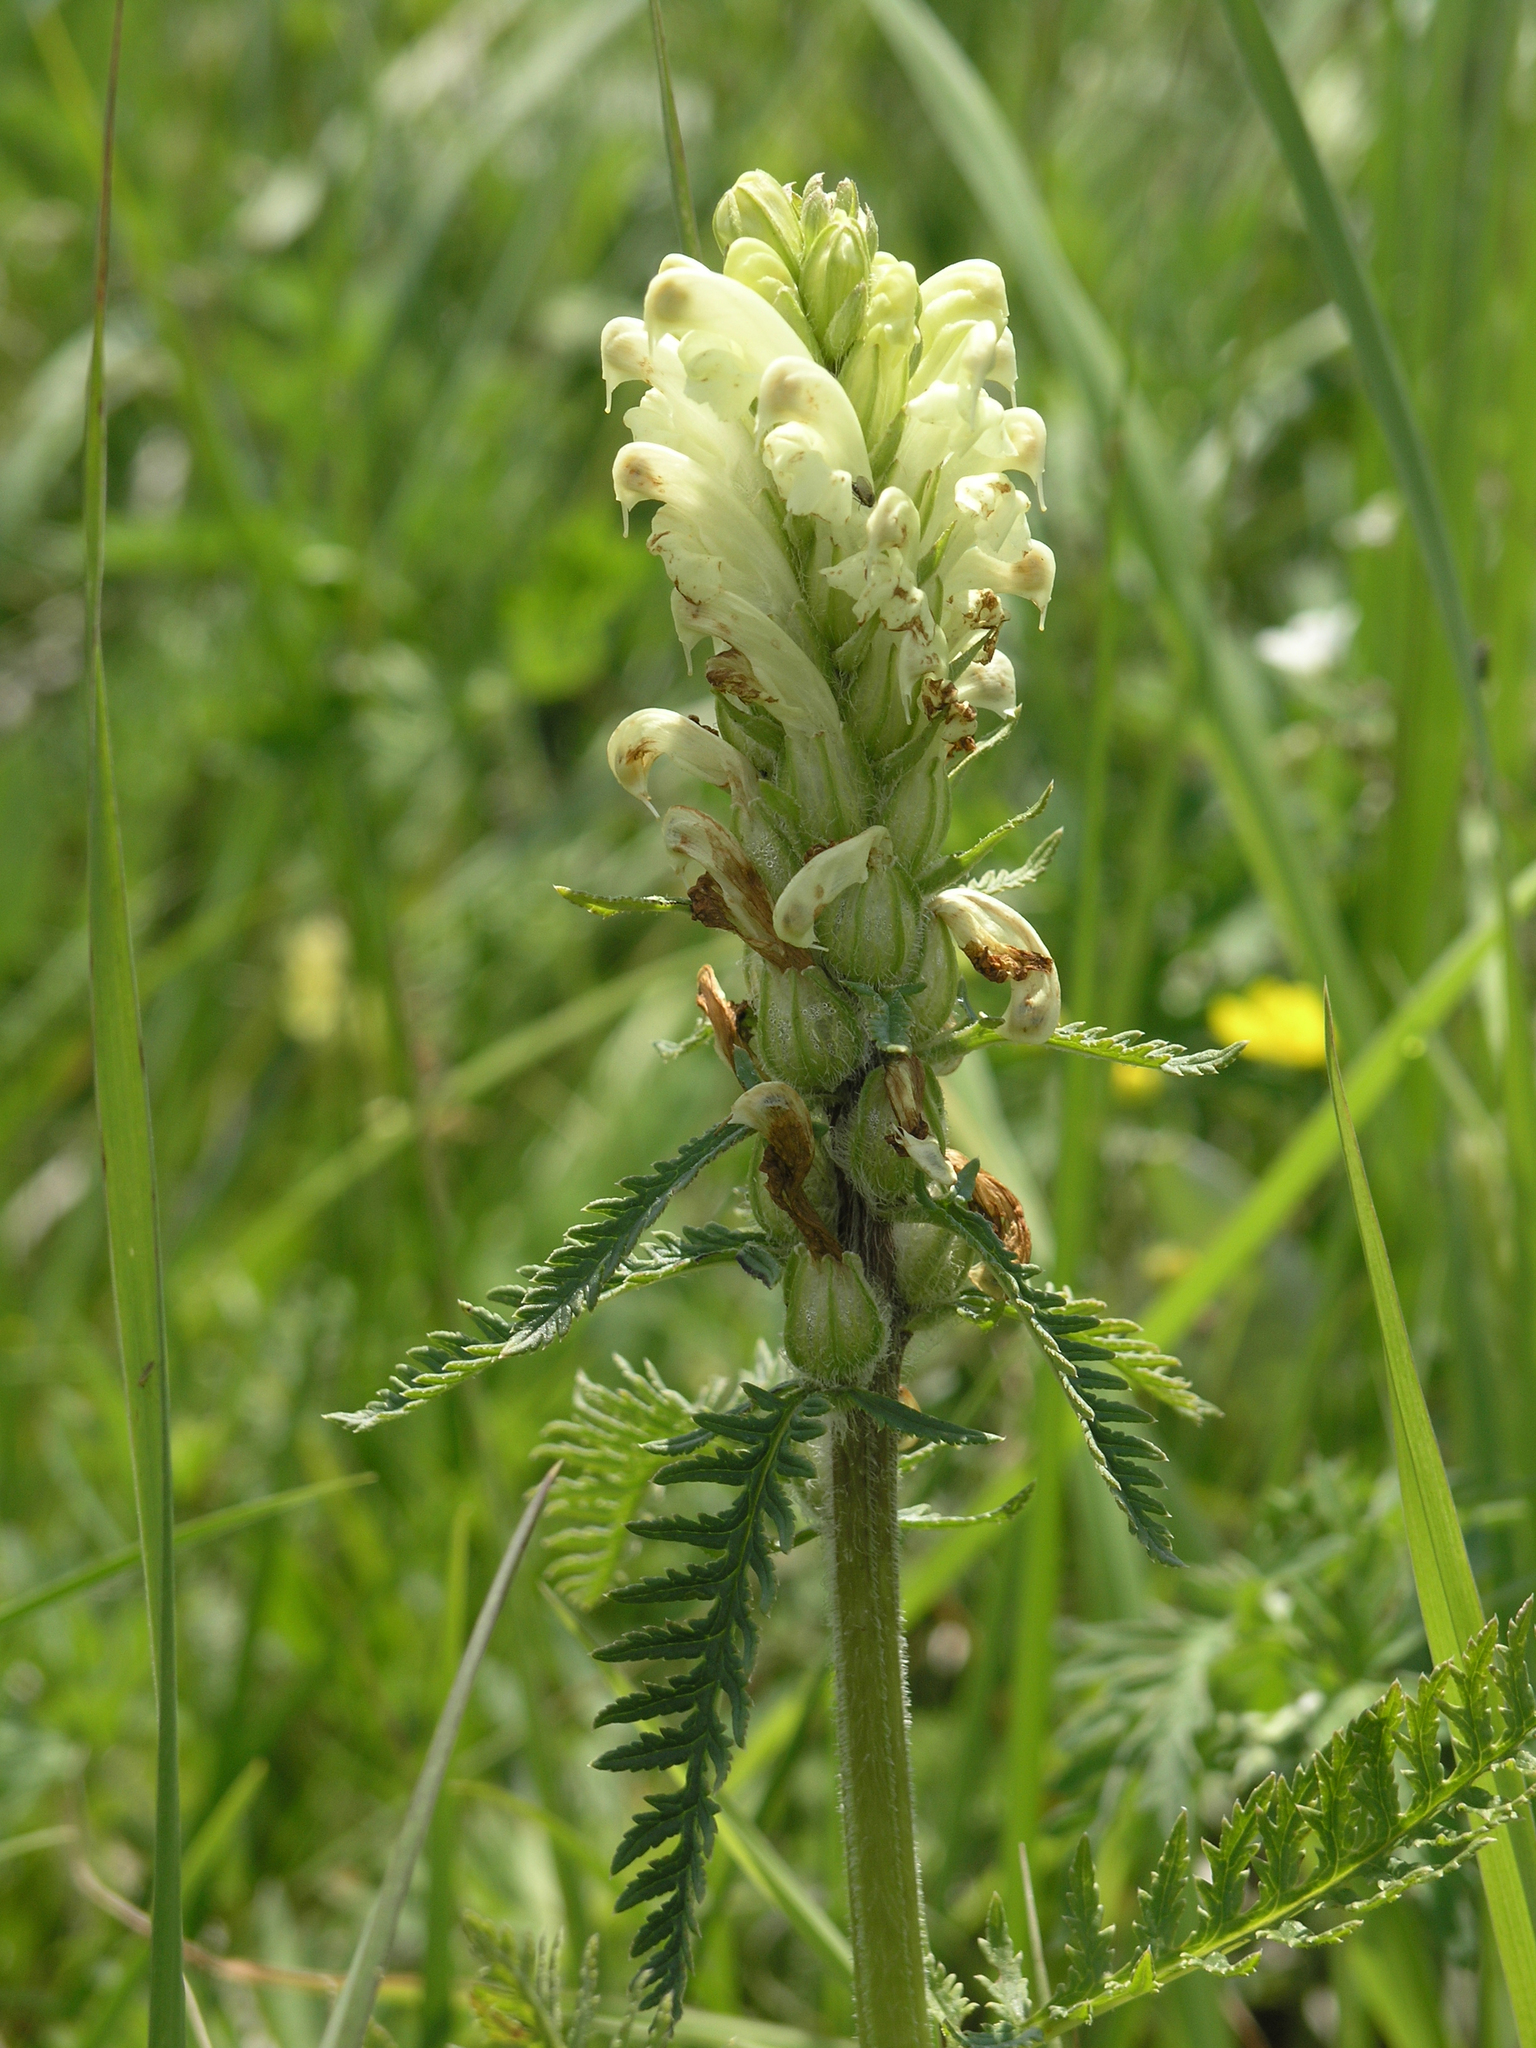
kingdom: Plantae
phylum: Tracheophyta
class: Magnoliopsida
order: Lamiales
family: Orobanchaceae
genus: Pedicularis
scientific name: Pedicularis sibirica
